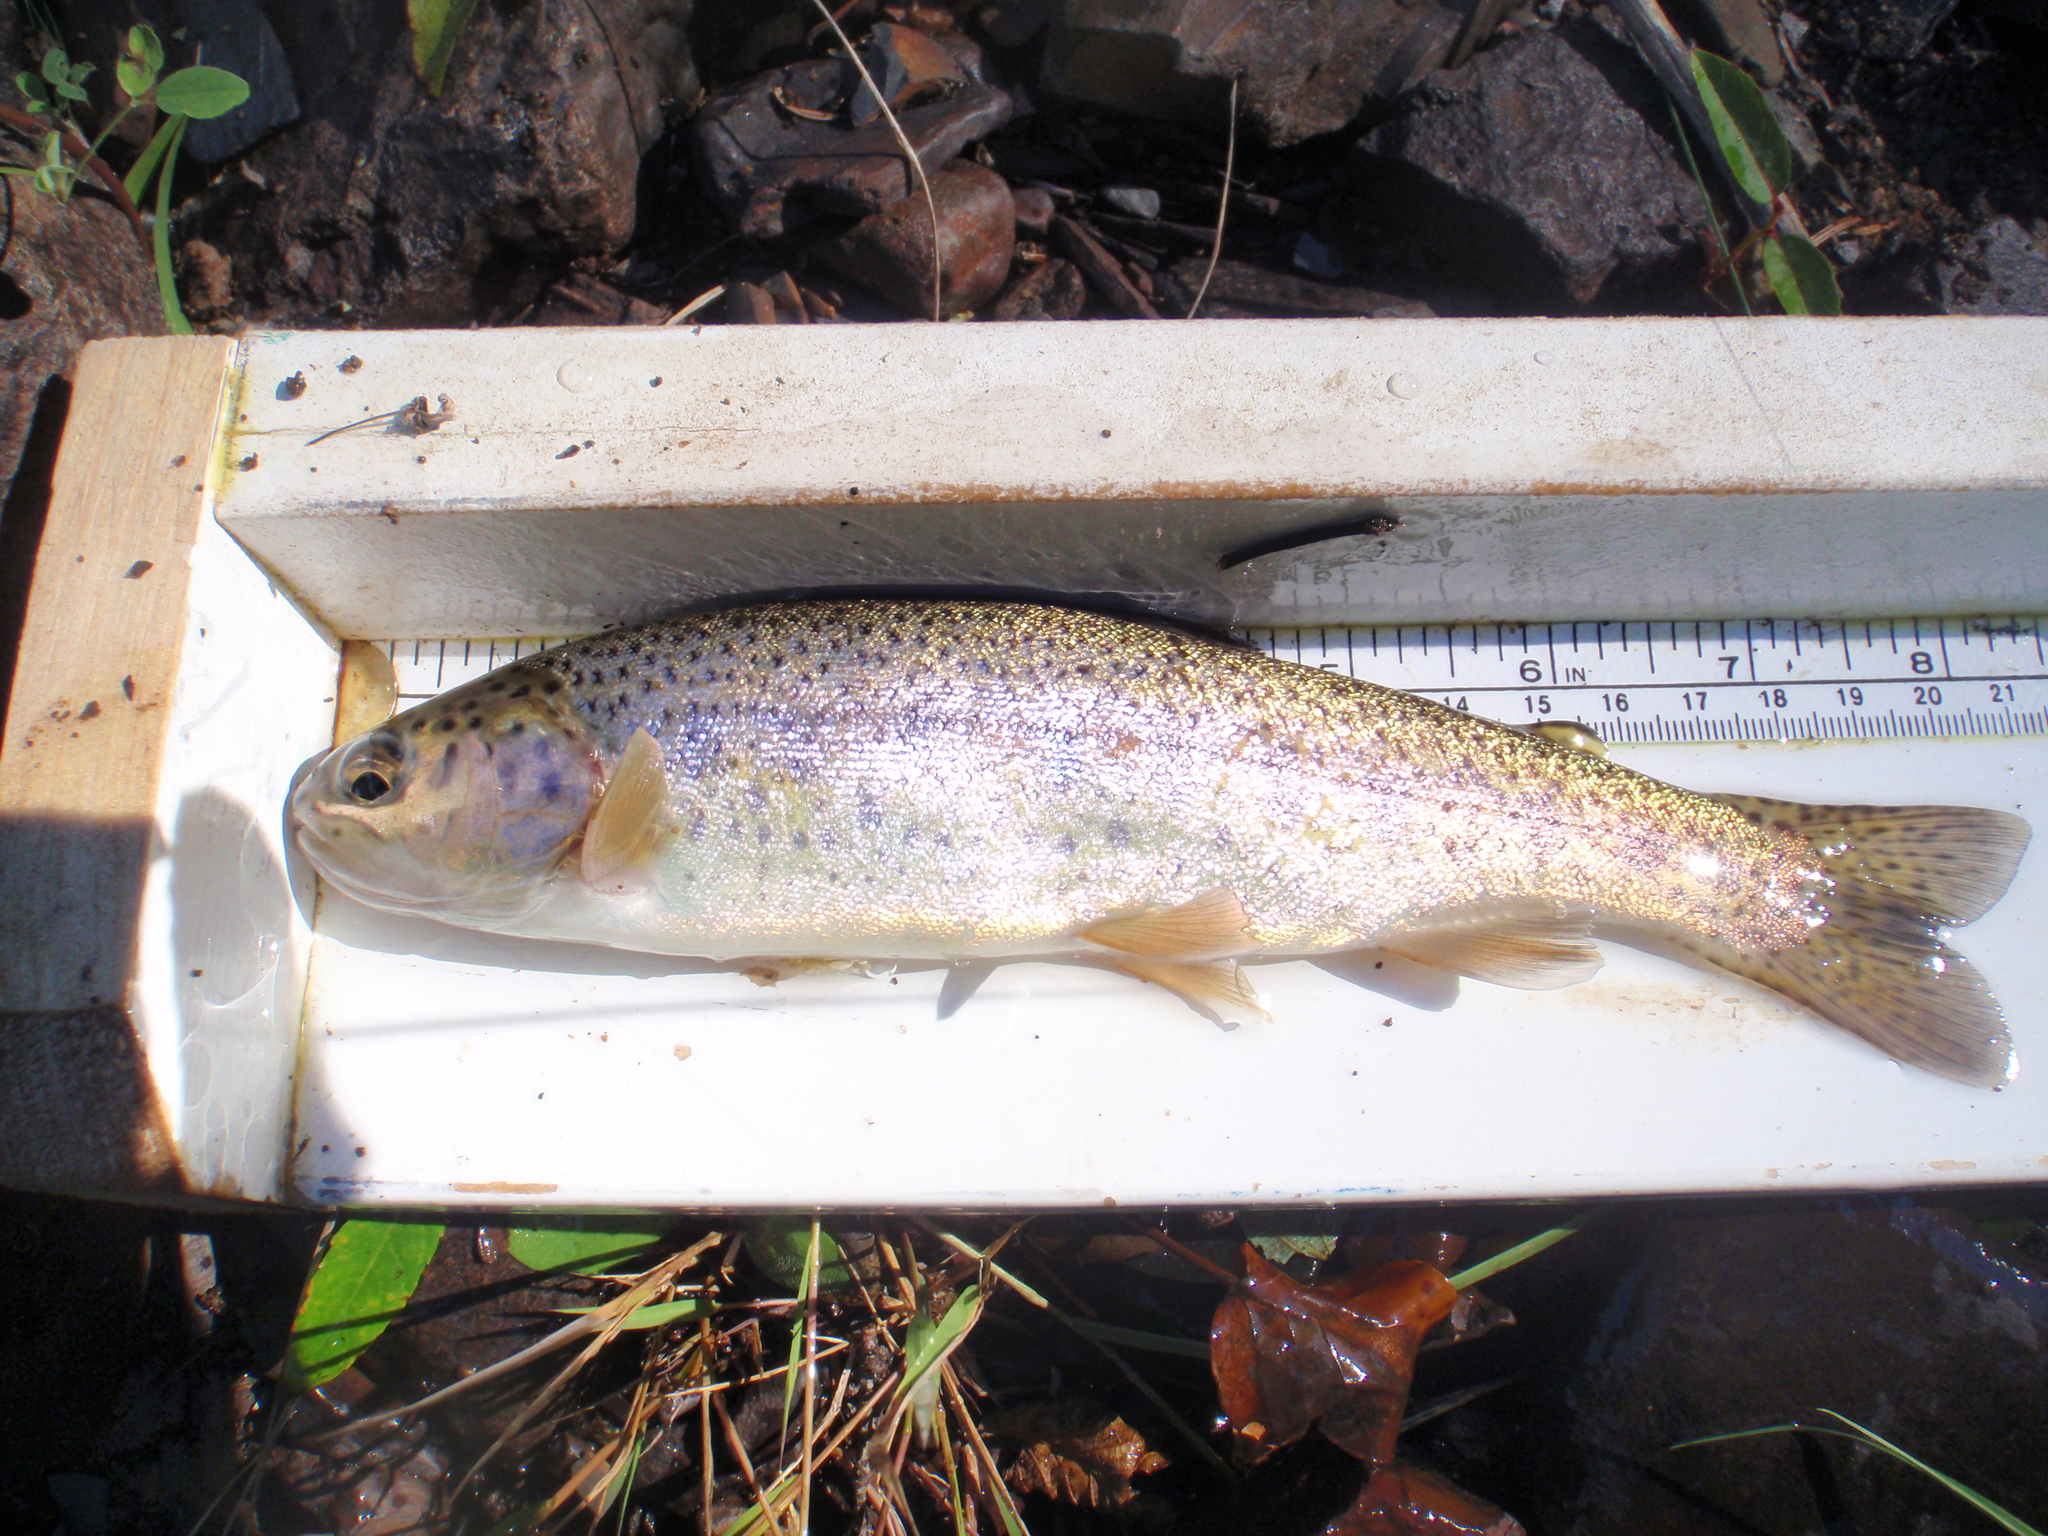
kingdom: Animalia
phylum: Chordata
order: Salmoniformes
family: Salmonidae
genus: Oncorhynchus
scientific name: Oncorhynchus mykiss
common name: Rainbow trout
